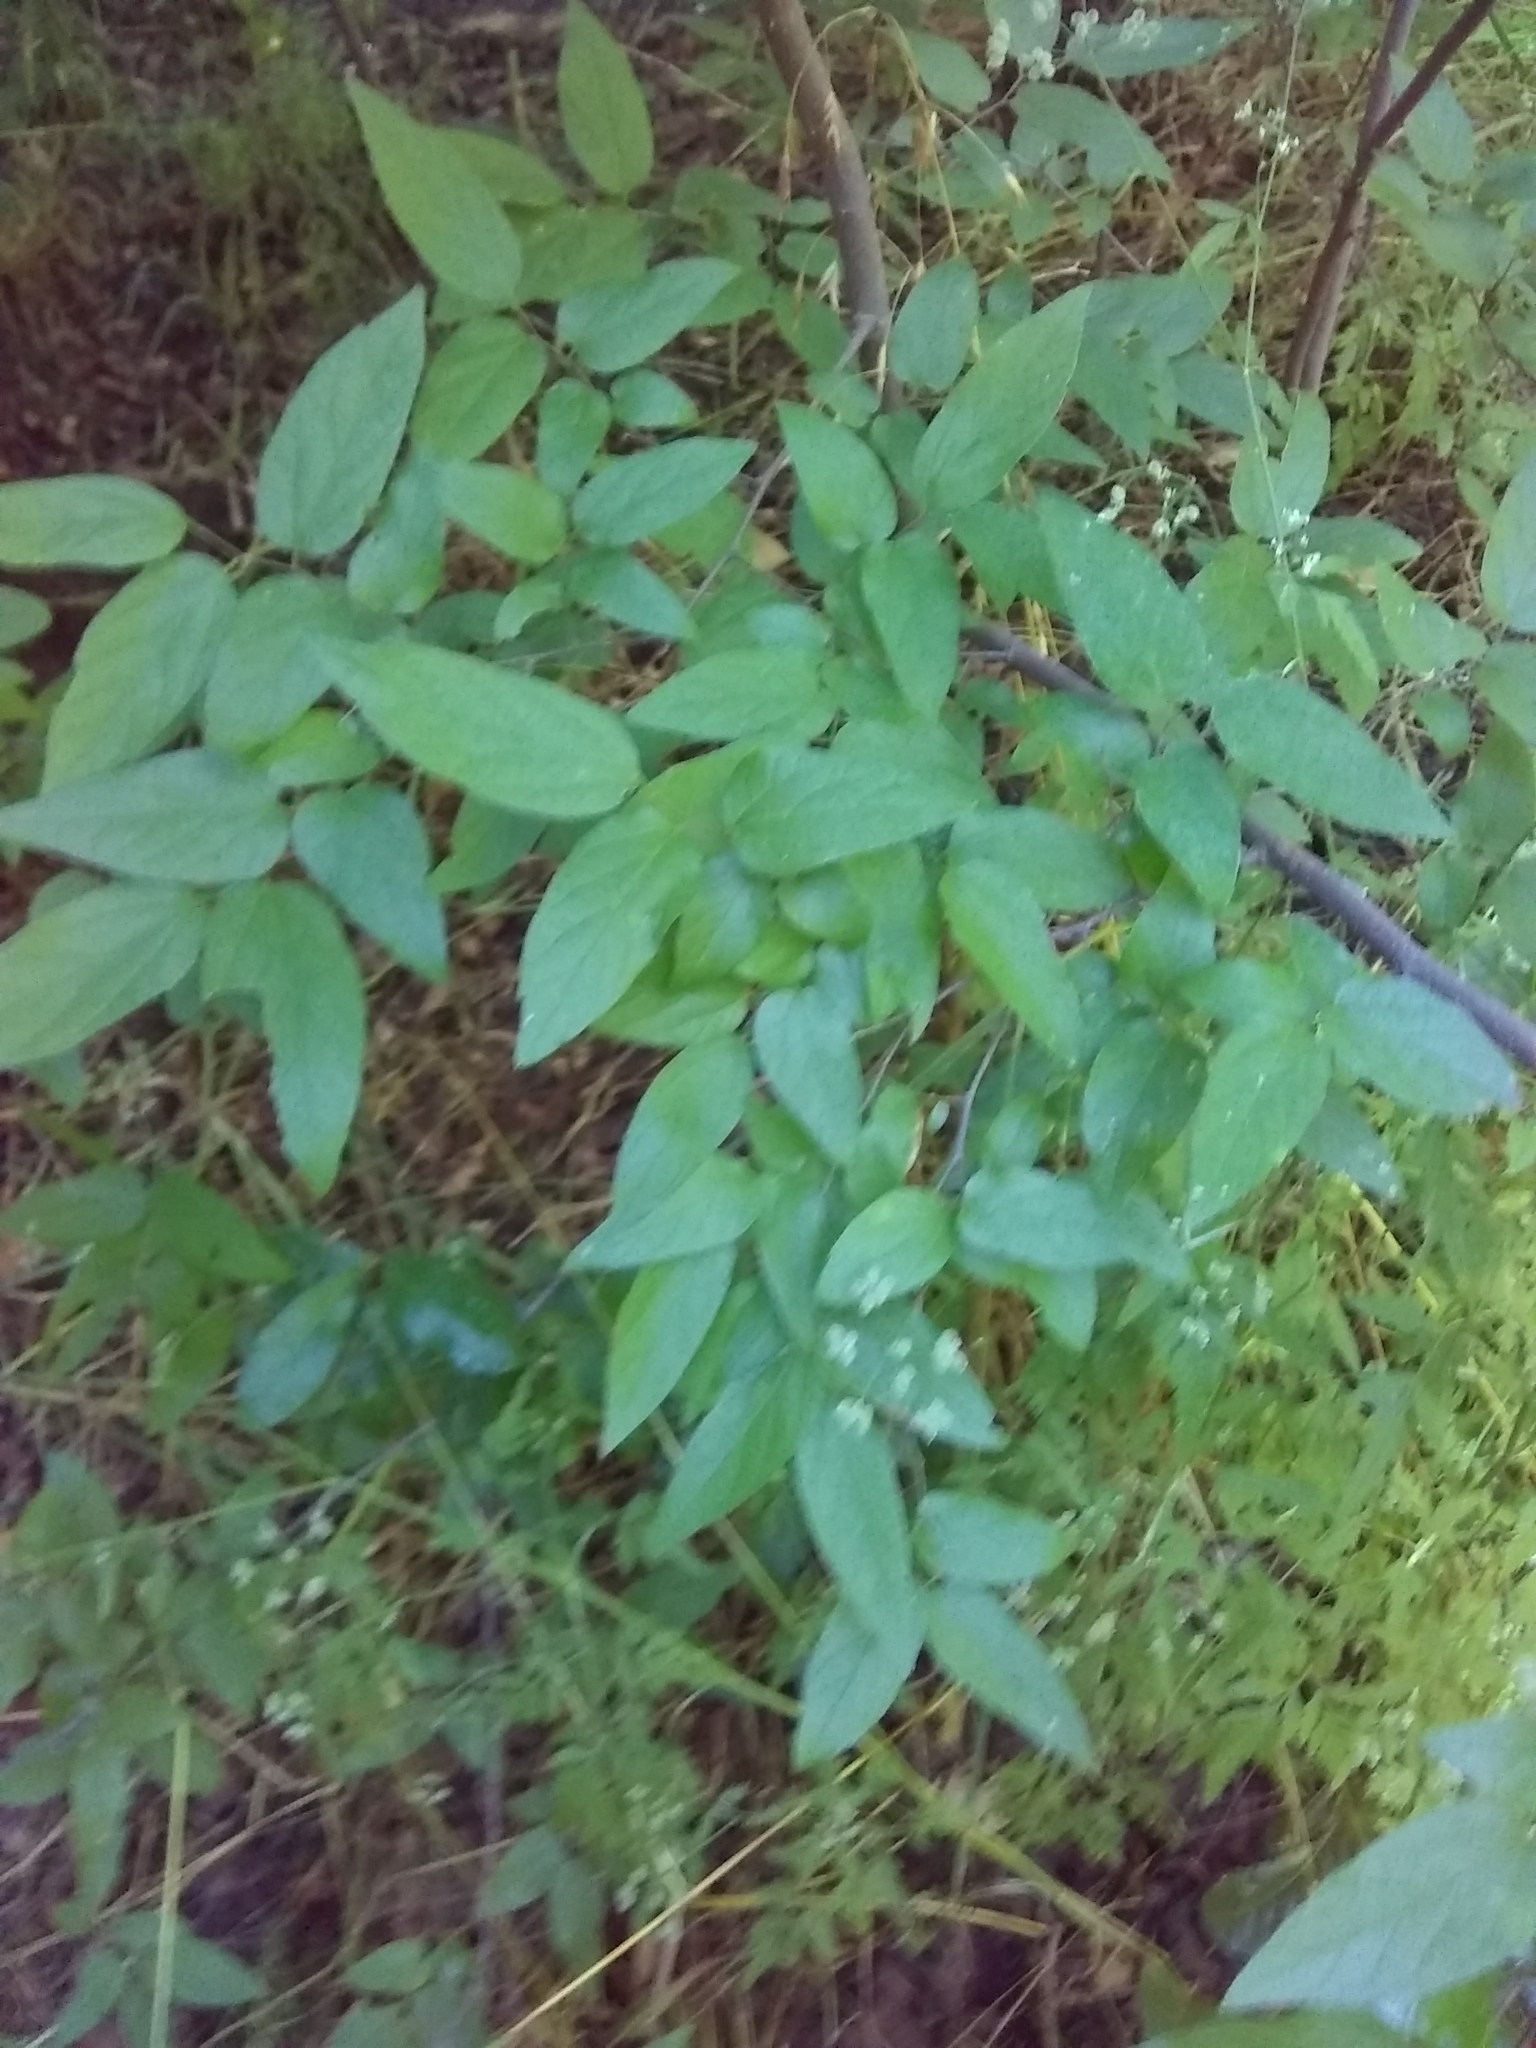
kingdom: Plantae
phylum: Tracheophyta
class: Magnoliopsida
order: Rosales
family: Cannabaceae
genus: Celtis
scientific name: Celtis laevigata
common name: Sugarberry
